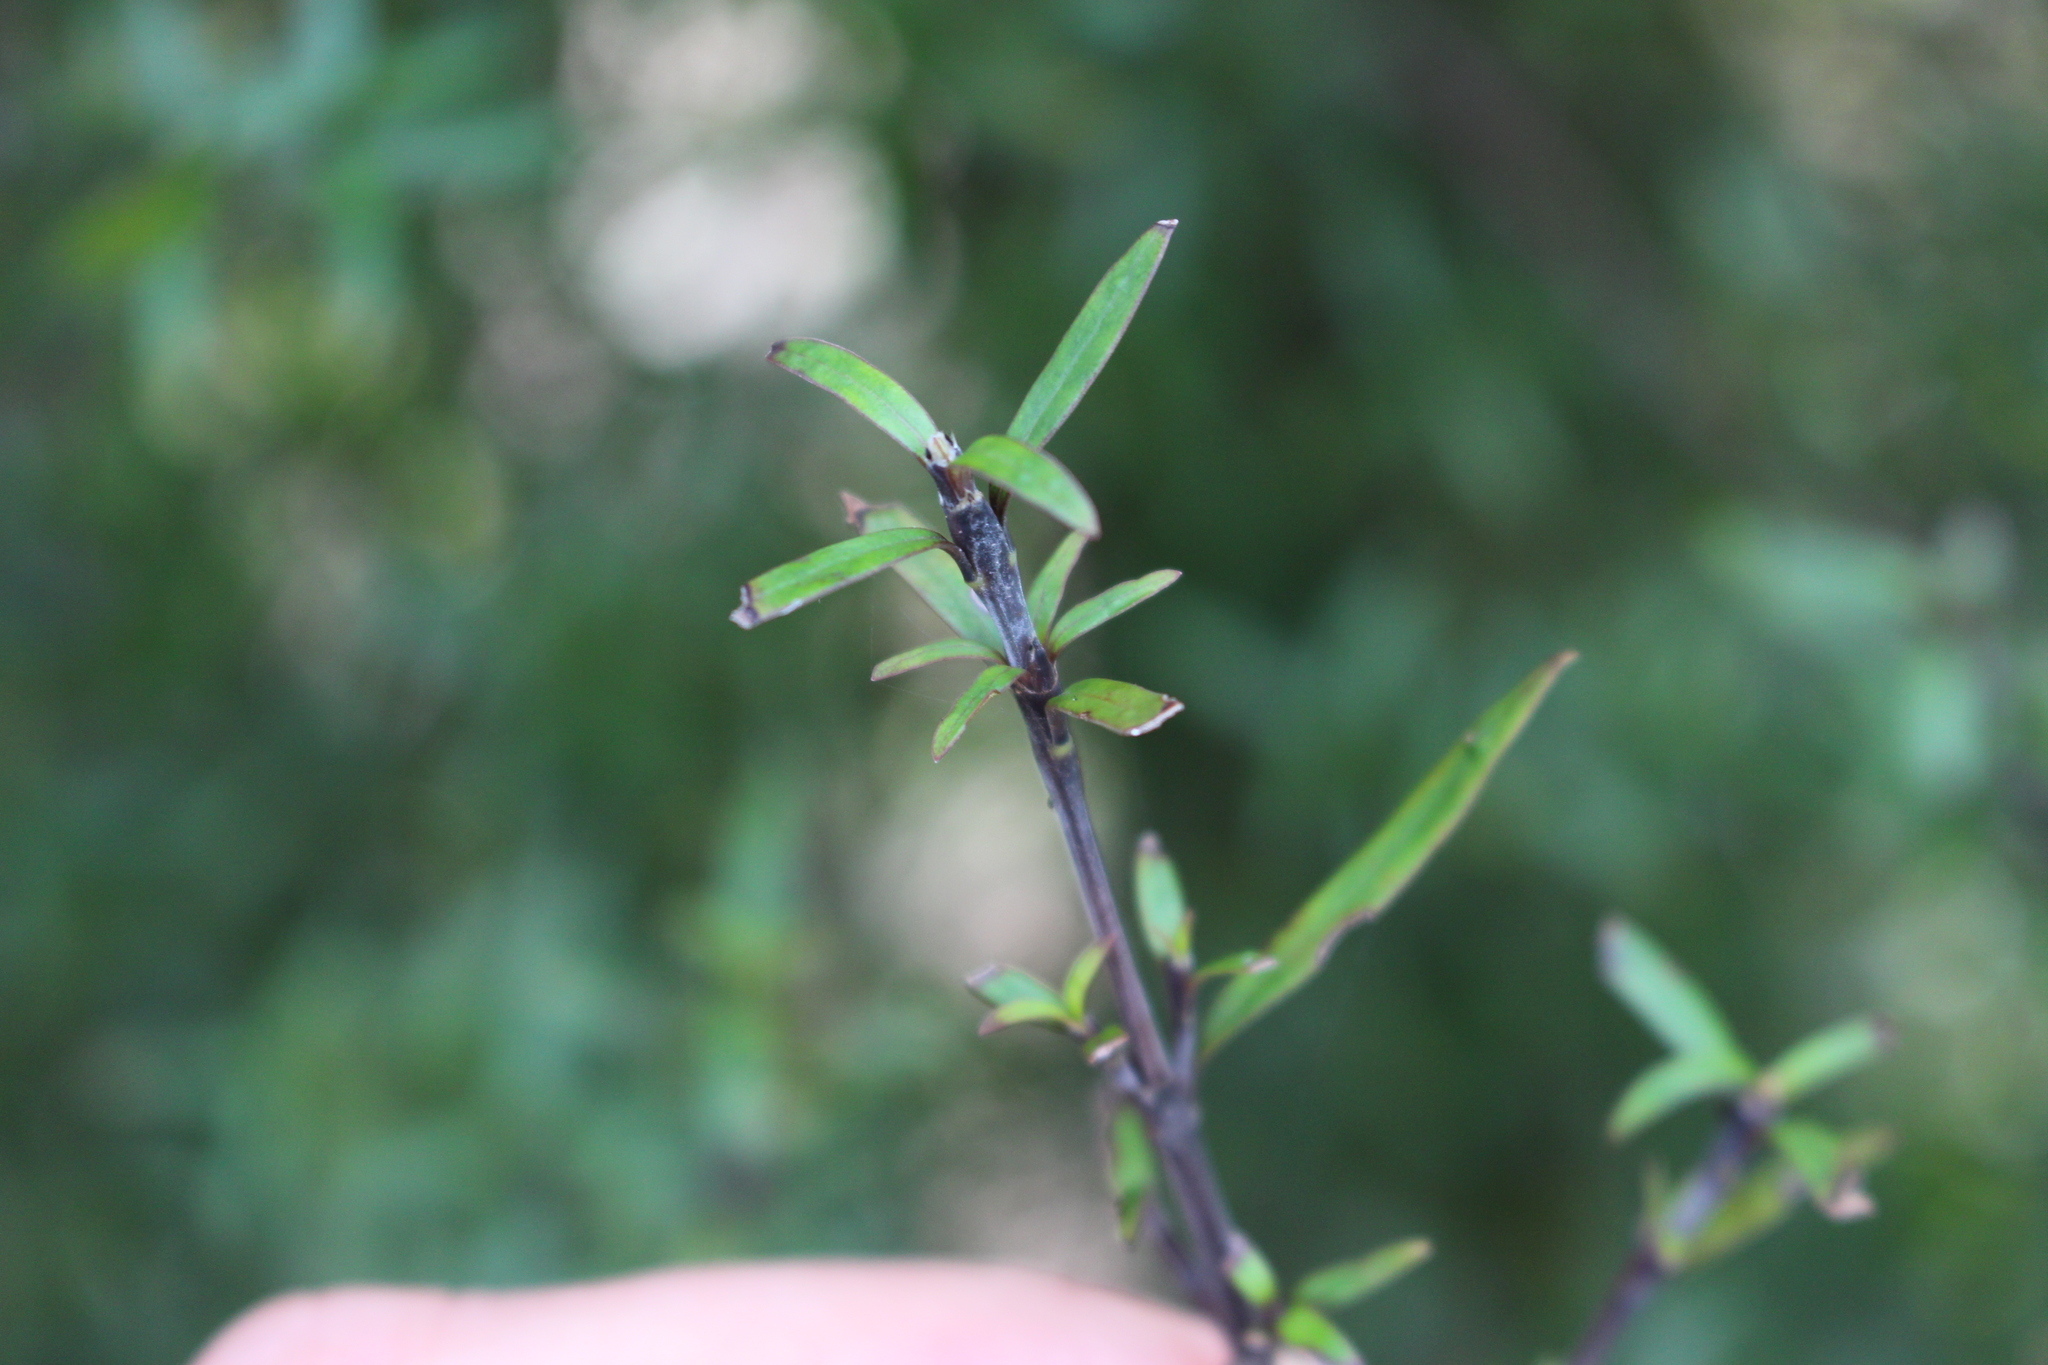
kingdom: Plantae
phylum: Tracheophyta
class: Magnoliopsida
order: Gentianales
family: Rubiaceae
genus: Coprosma
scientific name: Coprosma linariifolia
